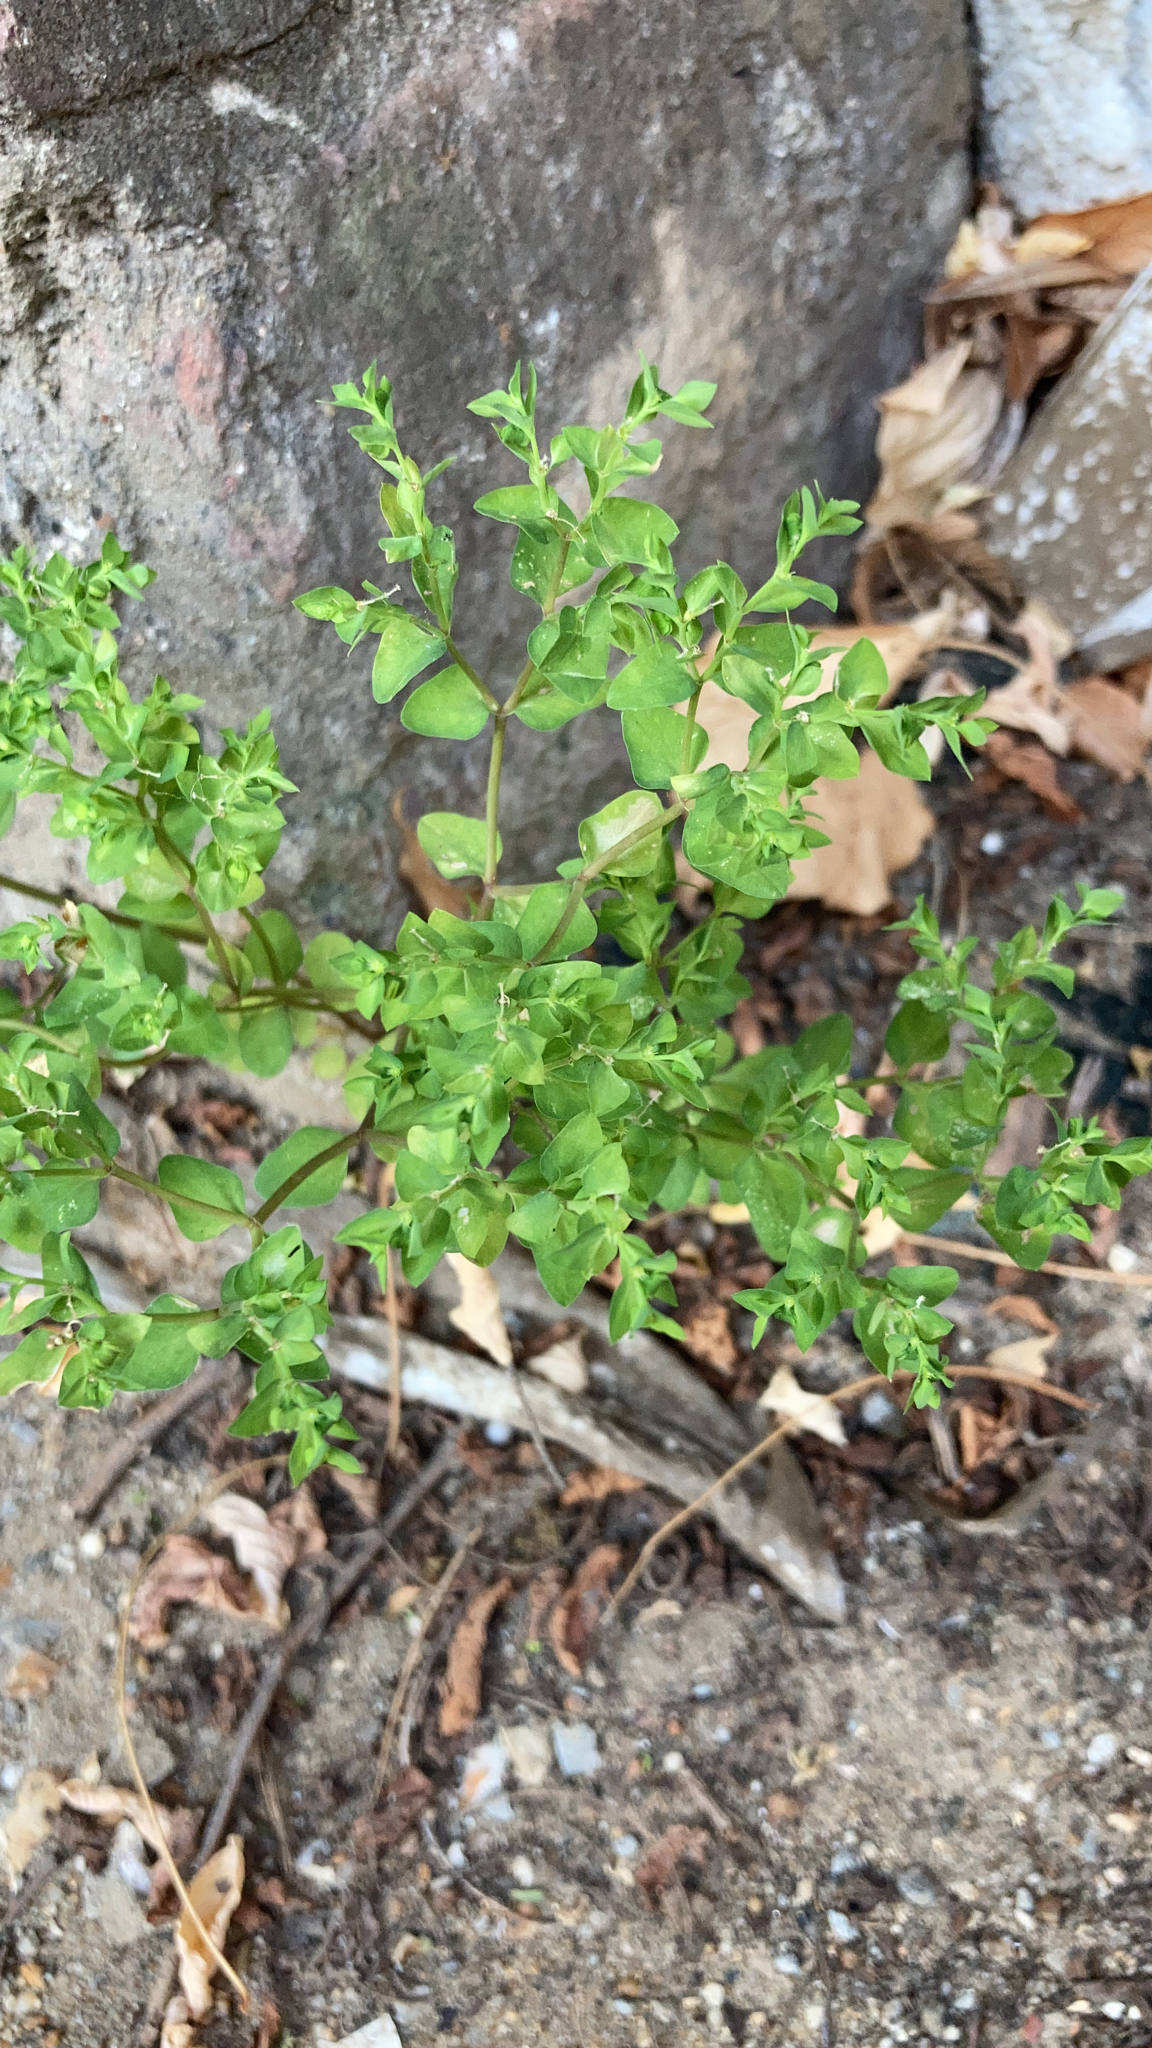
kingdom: Plantae
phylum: Tracheophyta
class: Magnoliopsida
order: Malpighiales
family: Euphorbiaceae
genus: Euphorbia
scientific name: Euphorbia peplus
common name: Petty spurge
